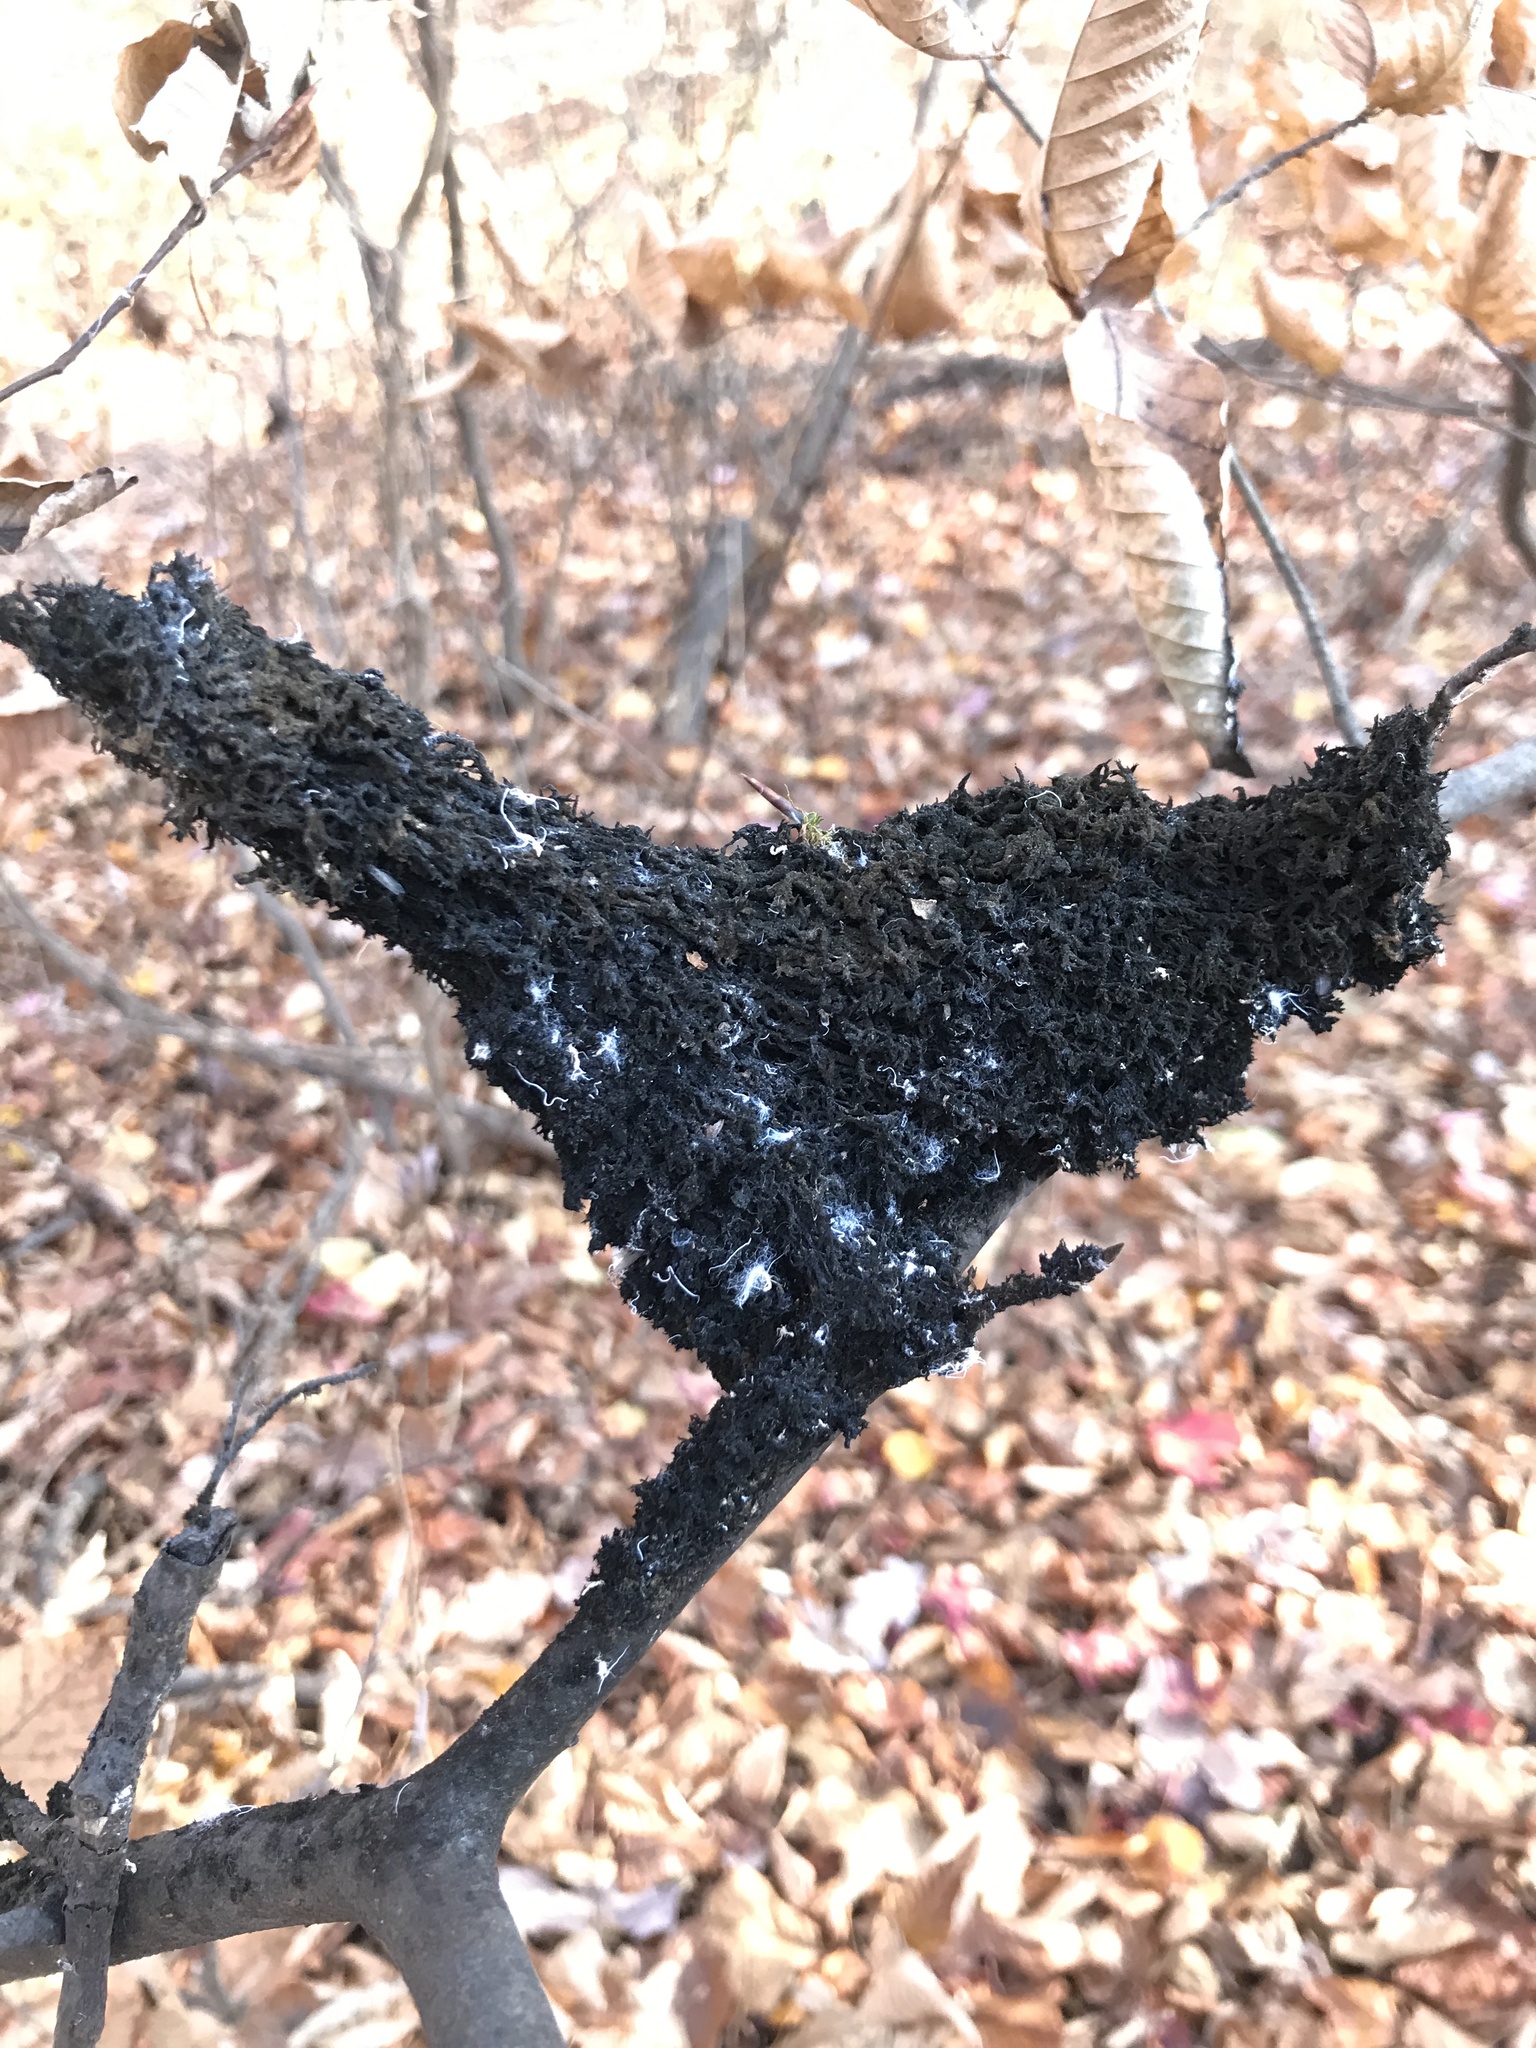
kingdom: Animalia
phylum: Arthropoda
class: Insecta
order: Hemiptera
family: Aphididae
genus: Grylloprociphilus
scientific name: Grylloprociphilus imbricator
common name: Beech blight aphid
